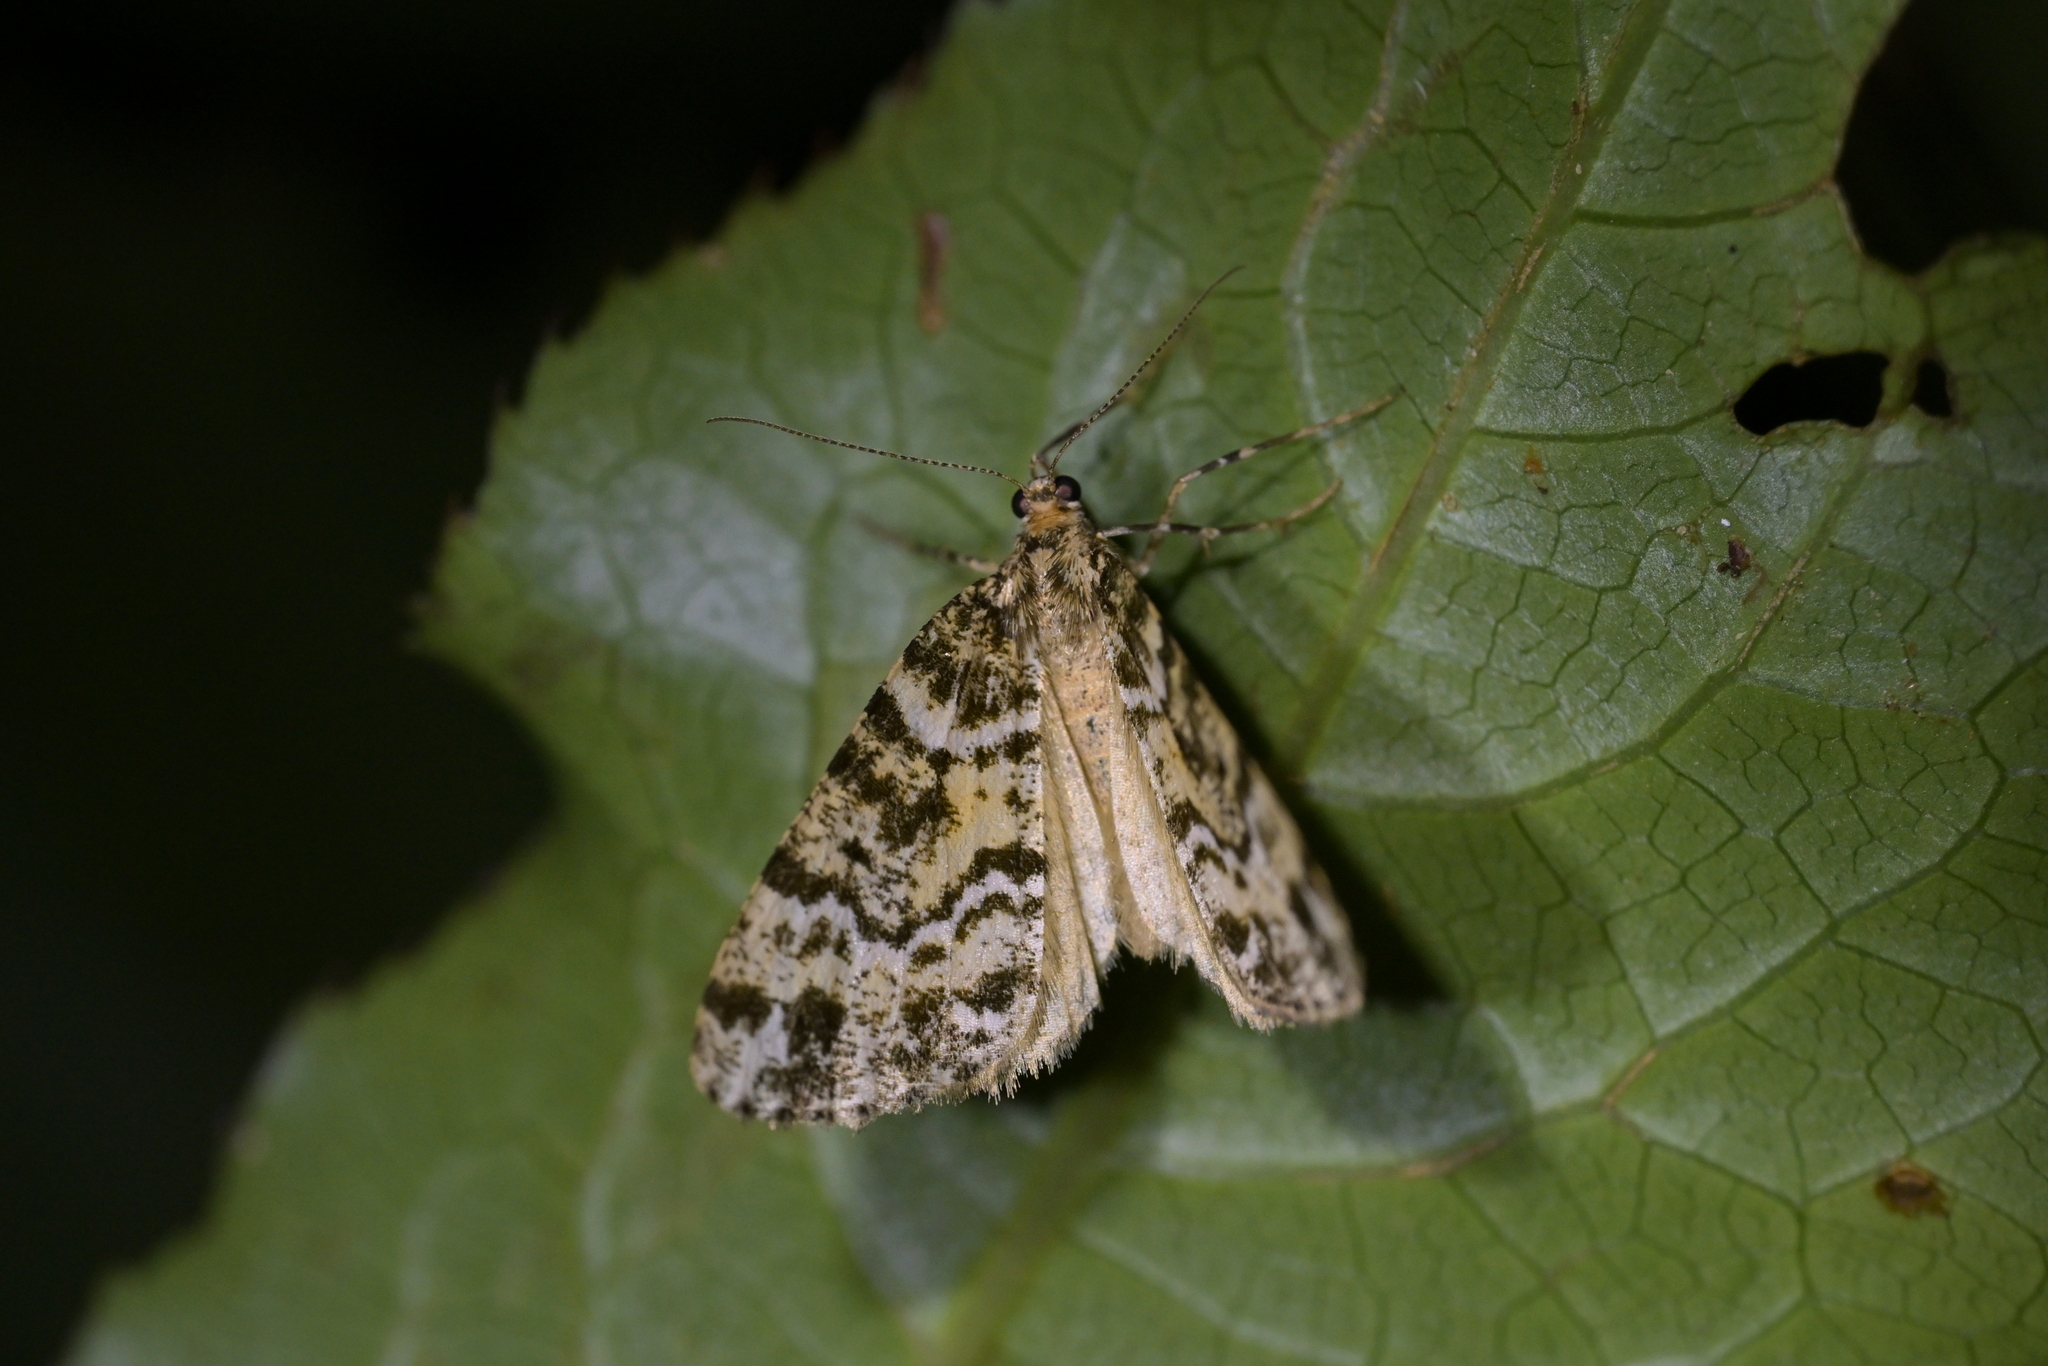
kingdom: Animalia
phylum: Arthropoda
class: Insecta
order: Lepidoptera
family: Geometridae
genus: Pseudocoremia
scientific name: Pseudocoremia productata
